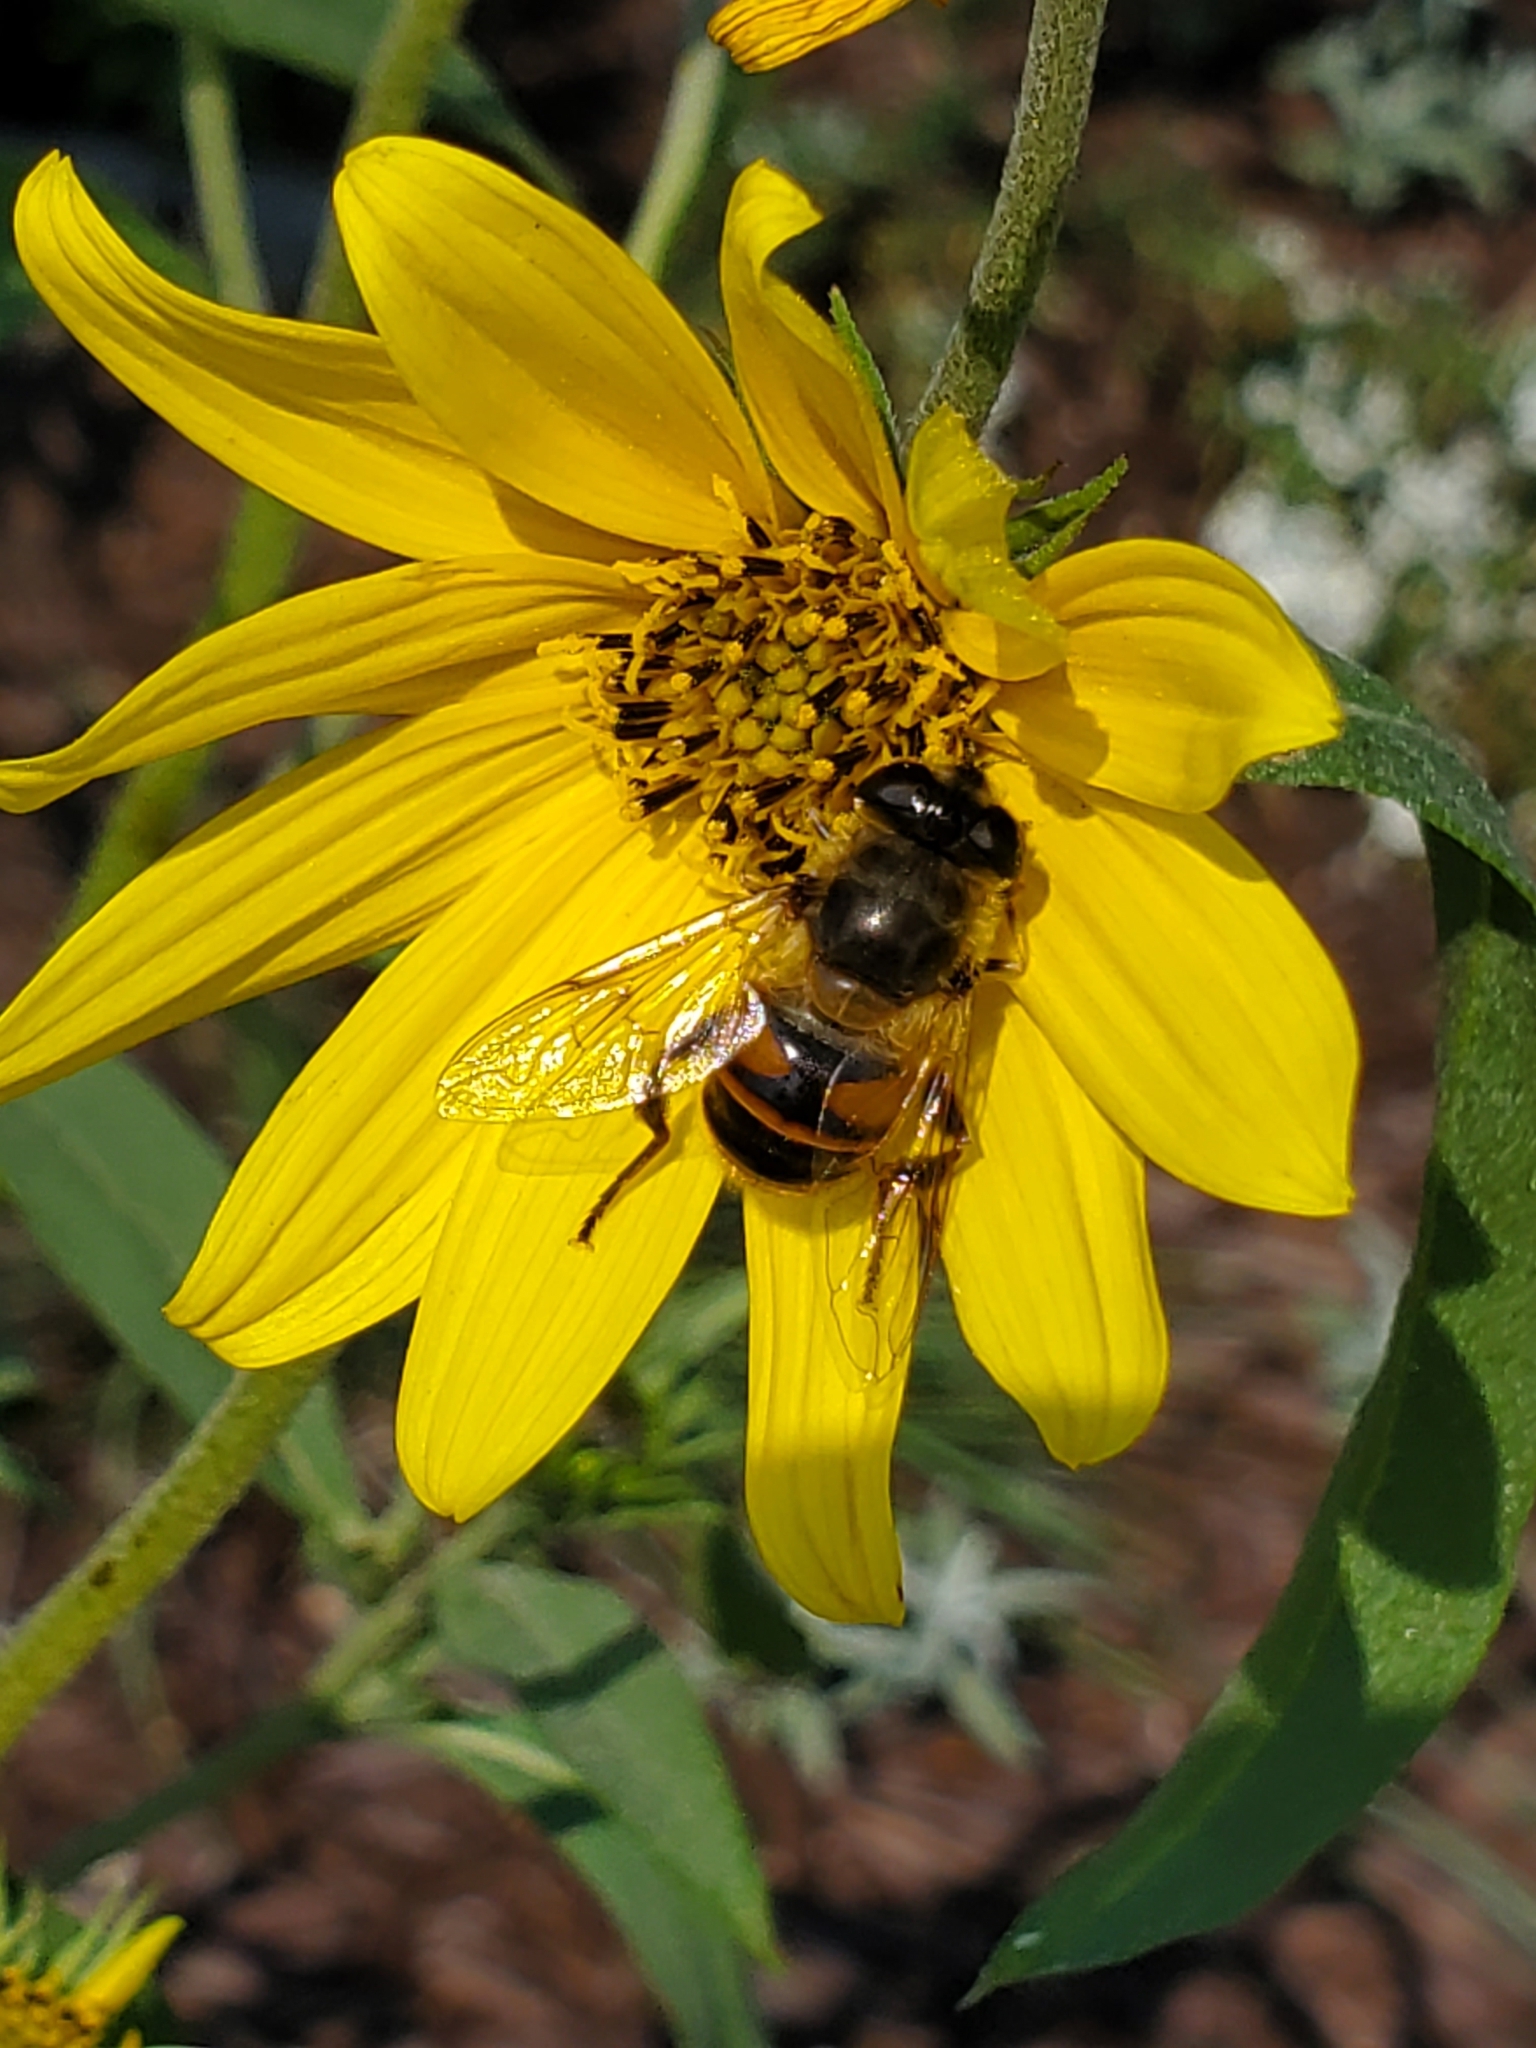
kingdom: Animalia
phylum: Arthropoda
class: Insecta
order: Diptera
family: Syrphidae
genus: Eristalis
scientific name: Eristalis tenax
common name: Drone fly
